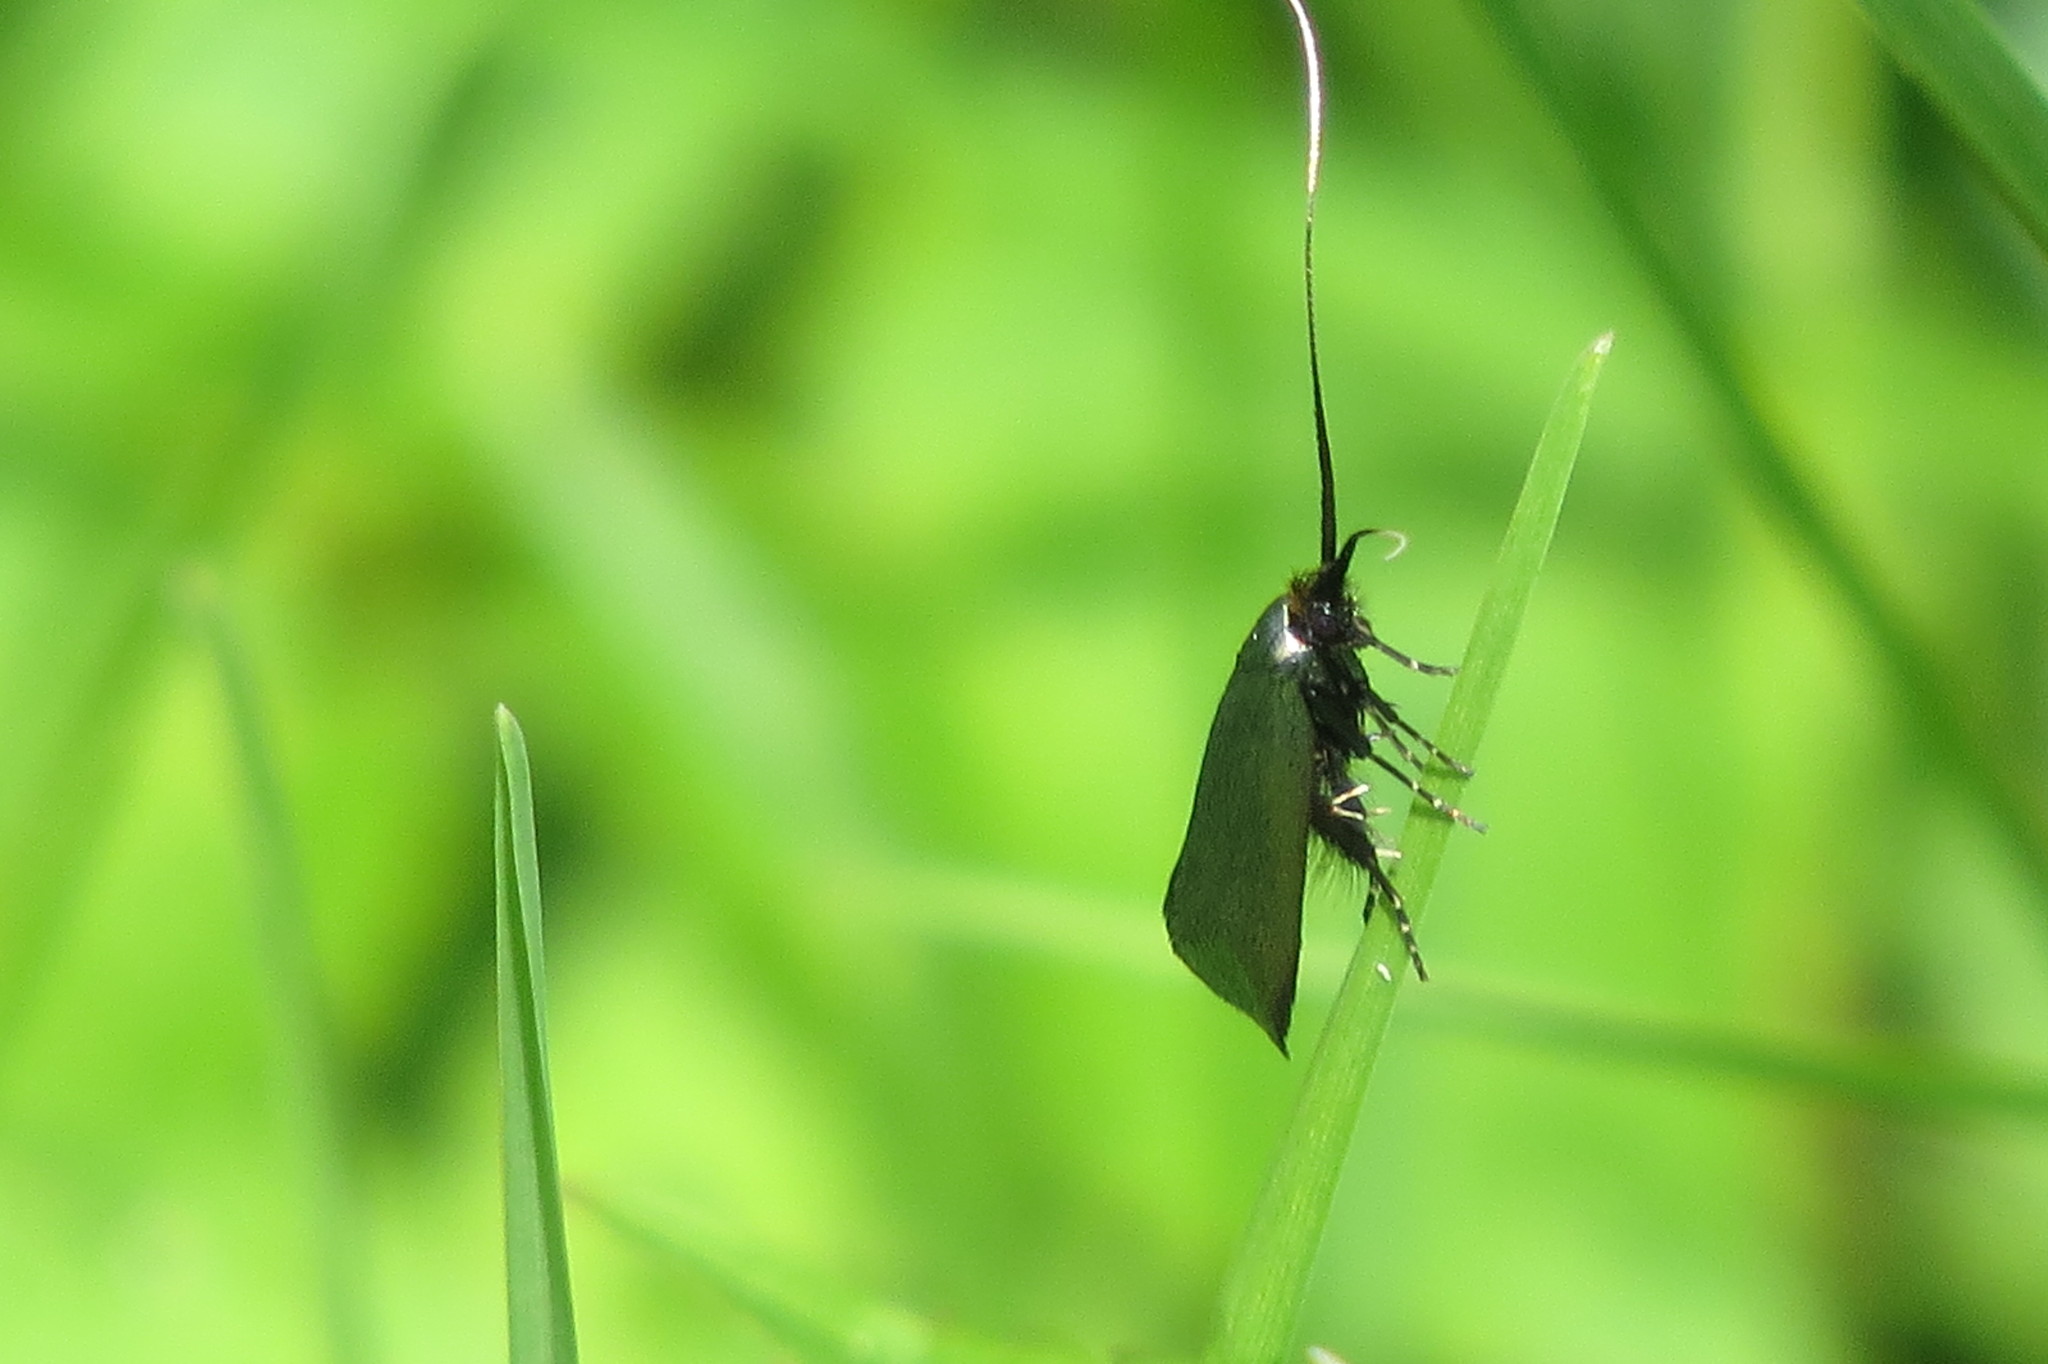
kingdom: Animalia
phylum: Arthropoda
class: Insecta
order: Lepidoptera
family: Adelidae
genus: Adela
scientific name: Adela viridella
